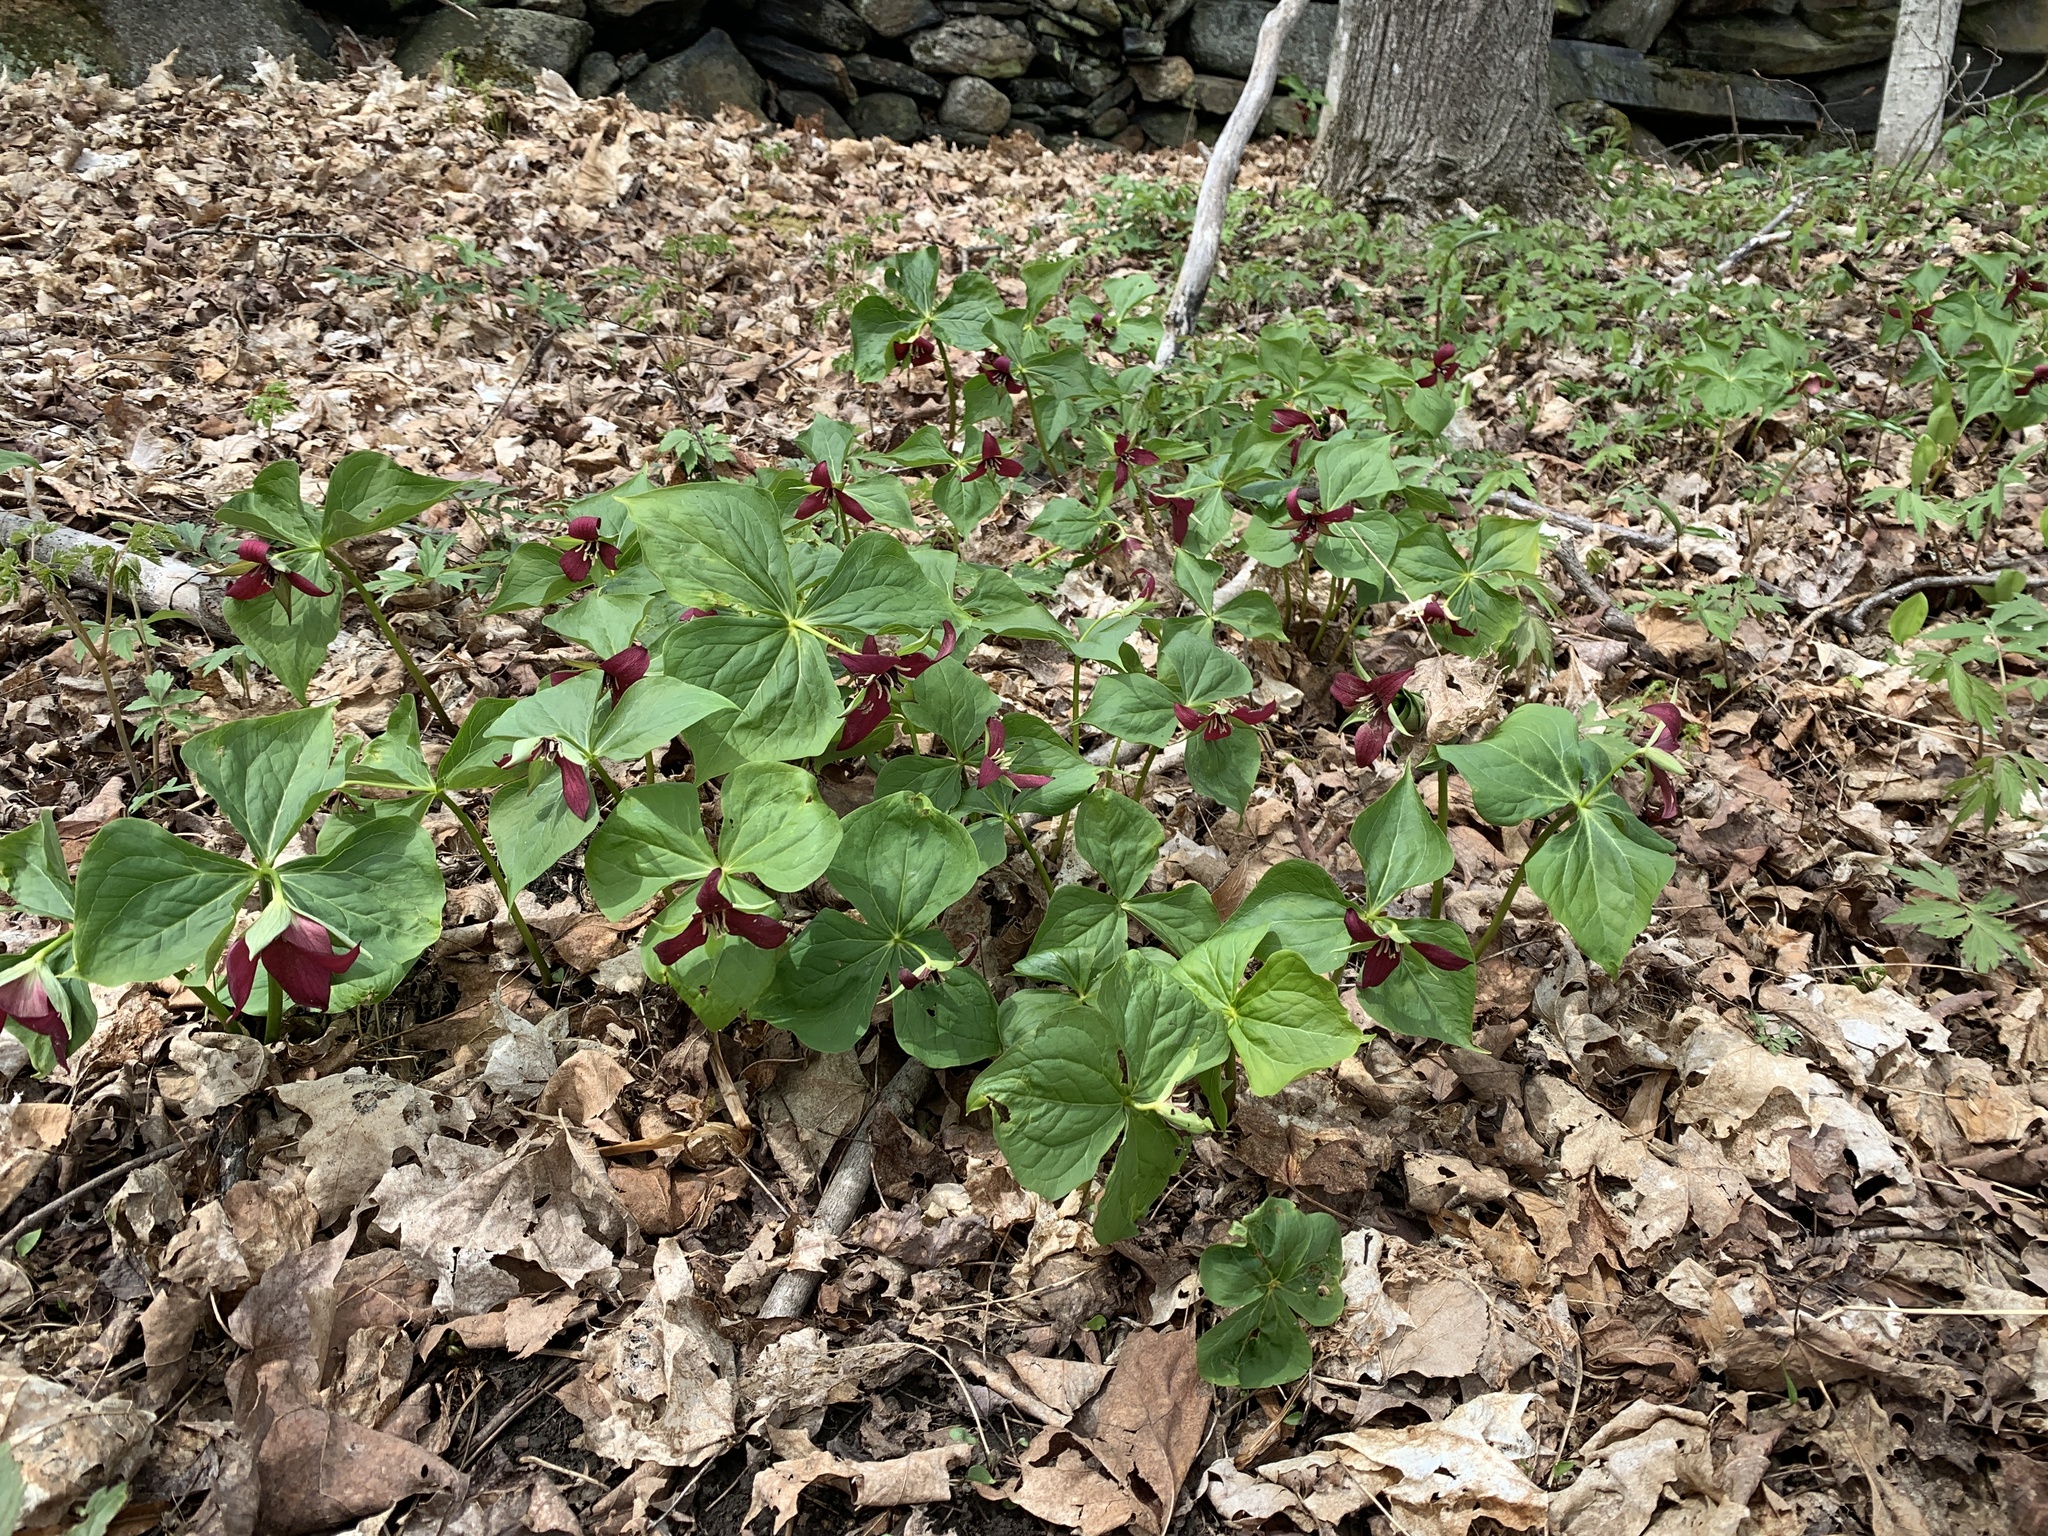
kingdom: Plantae
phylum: Tracheophyta
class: Liliopsida
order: Liliales
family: Melanthiaceae
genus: Trillium
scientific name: Trillium erectum
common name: Purple trillium
